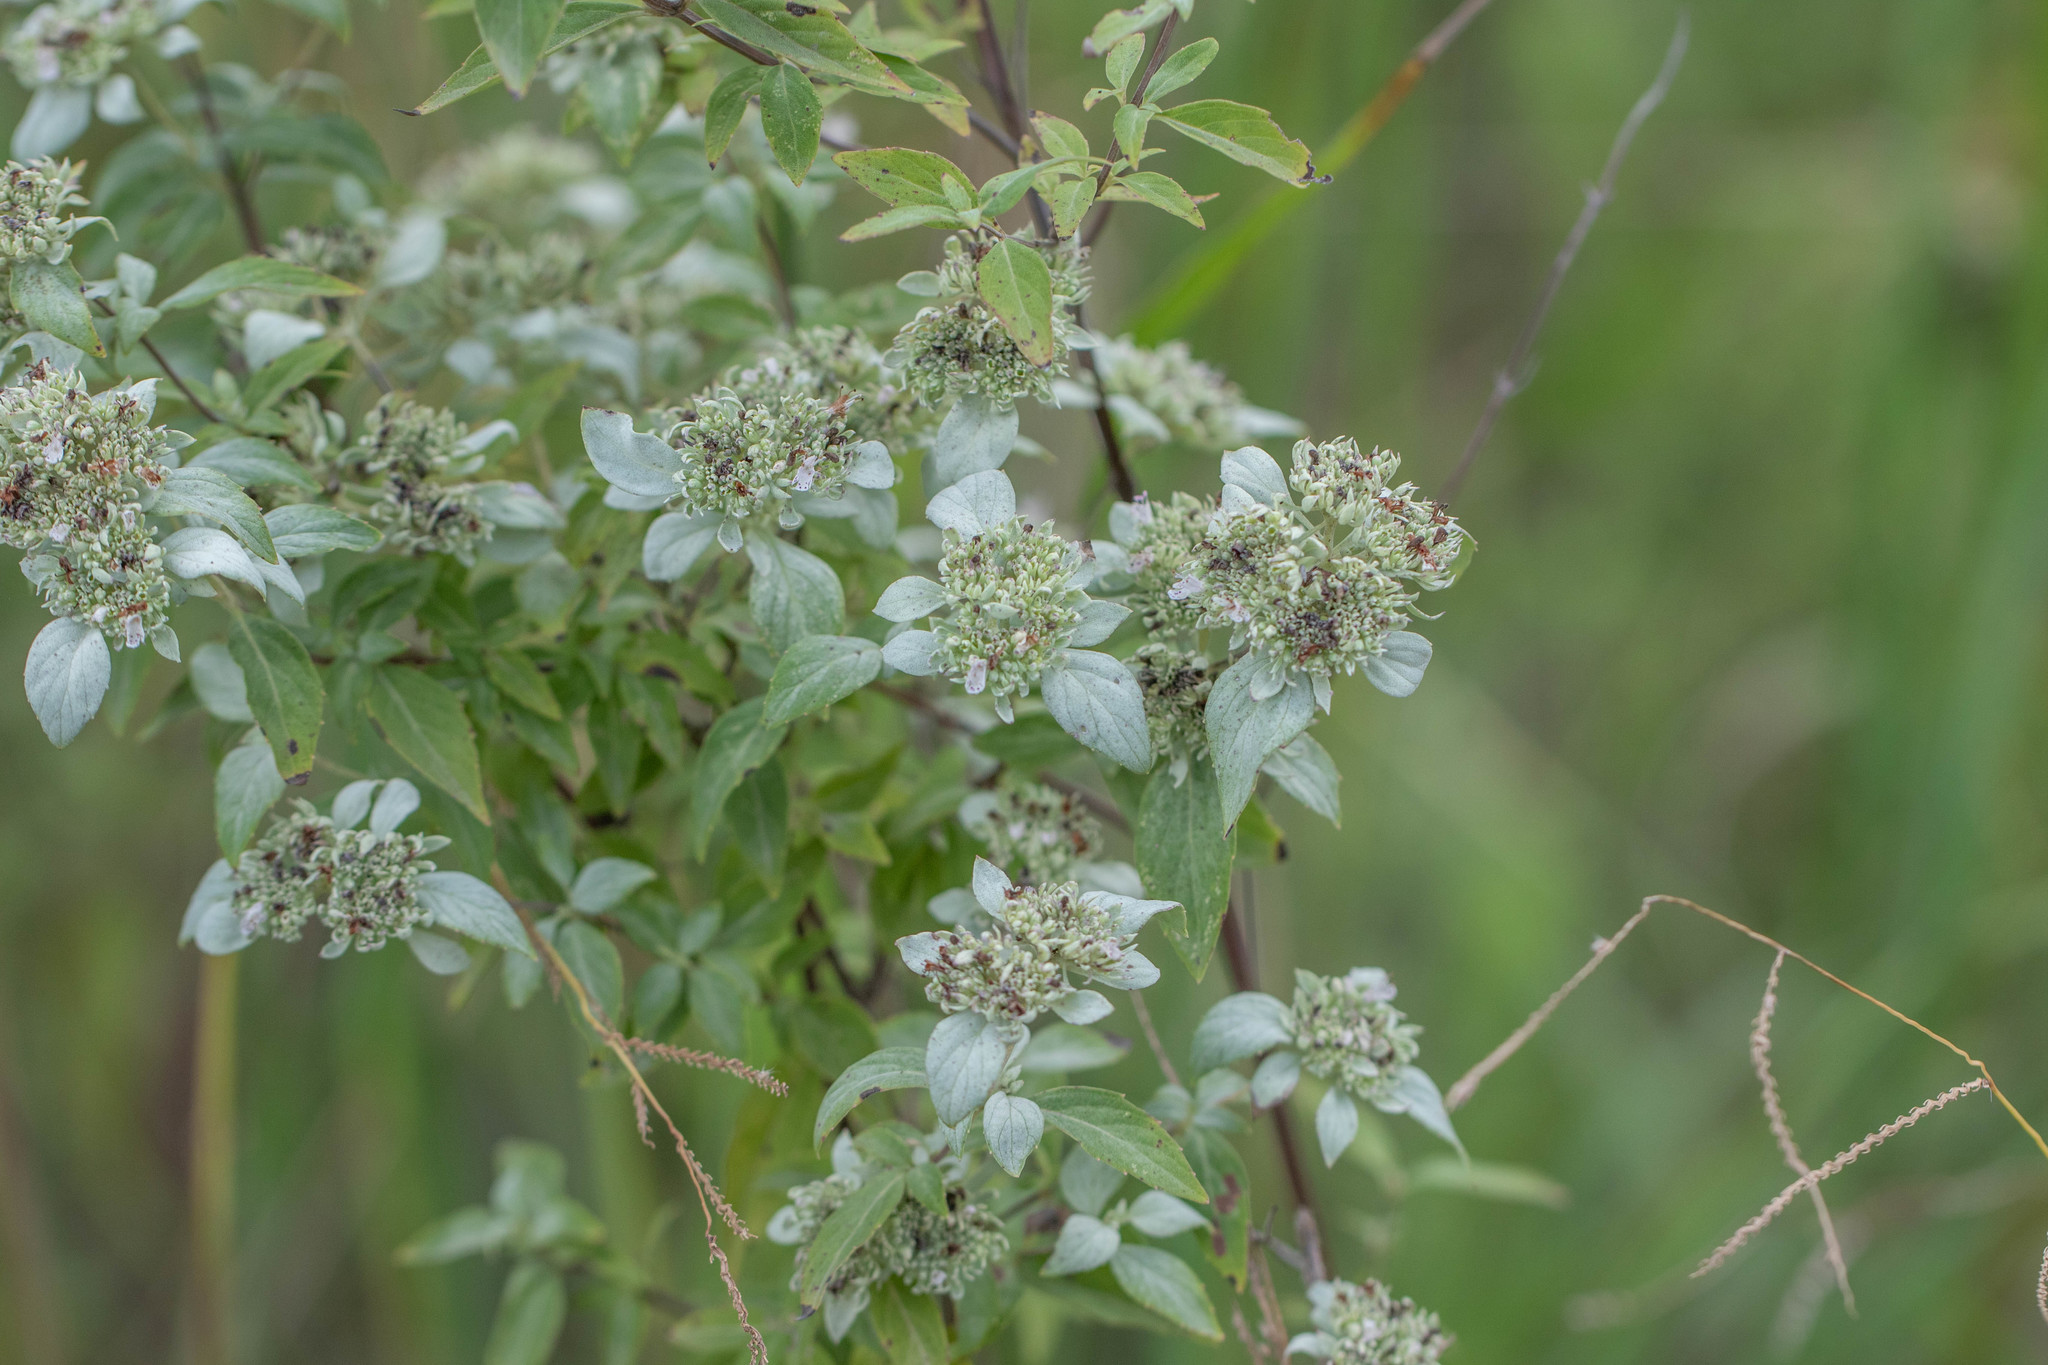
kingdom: Plantae
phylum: Tracheophyta
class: Magnoliopsida
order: Lamiales
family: Lamiaceae
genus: Pycnanthemum
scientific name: Pycnanthemum albescens
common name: White-leaf mountain-mint
